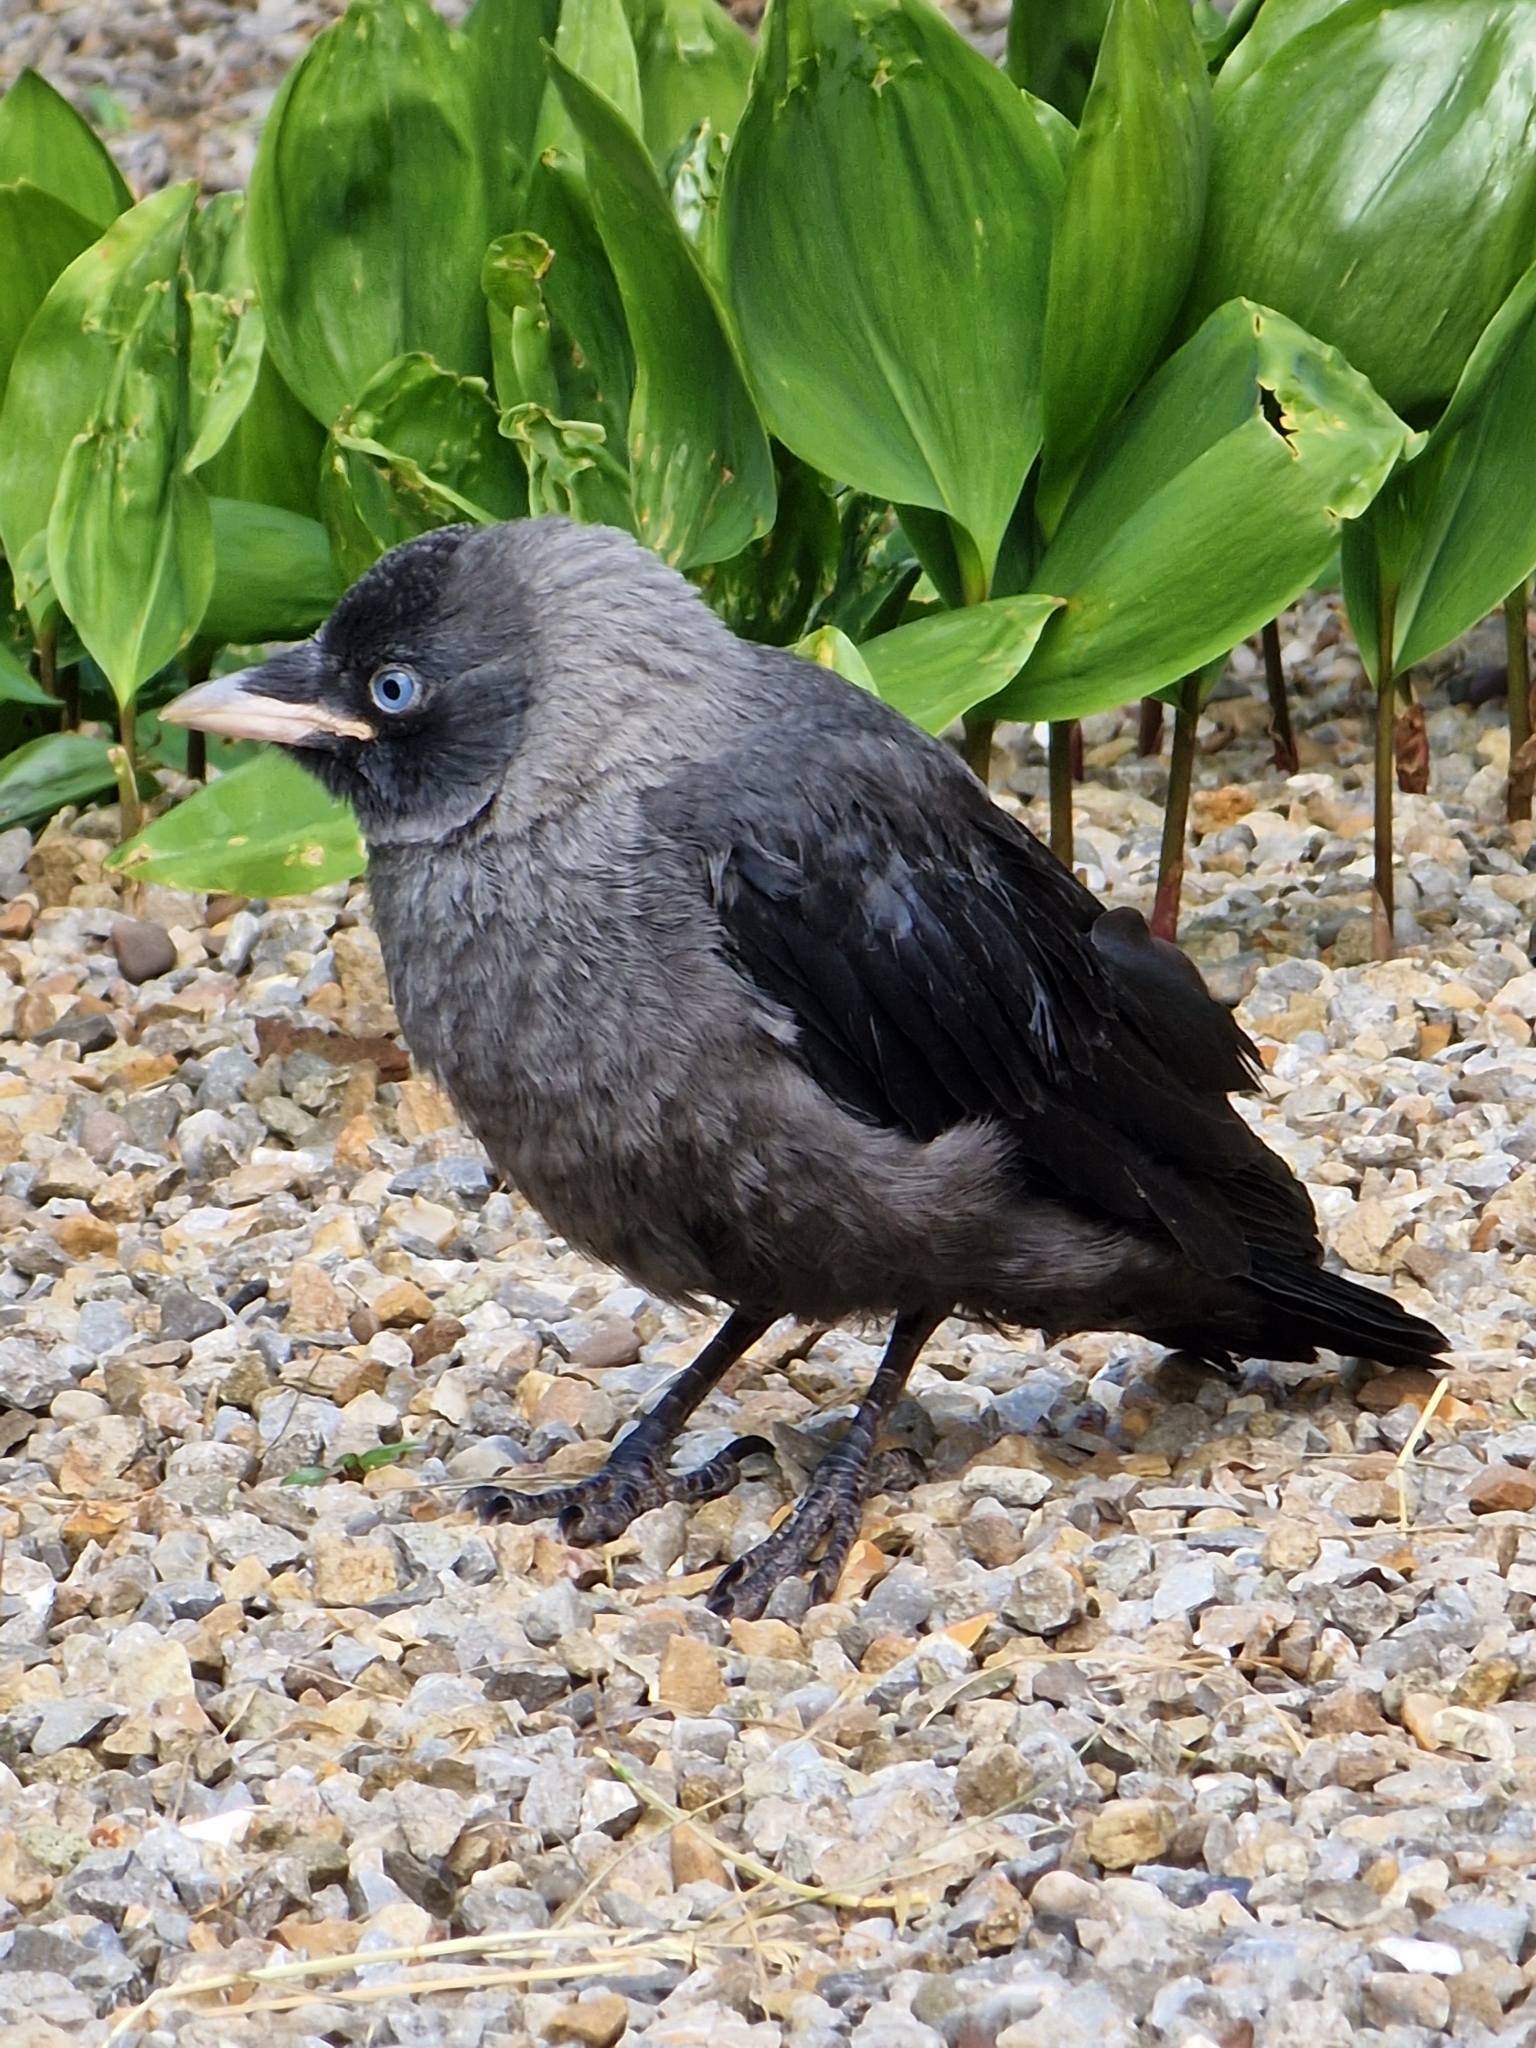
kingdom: Animalia
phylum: Chordata
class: Aves
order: Passeriformes
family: Corvidae
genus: Coloeus
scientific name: Coloeus monedula
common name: Western jackdaw
